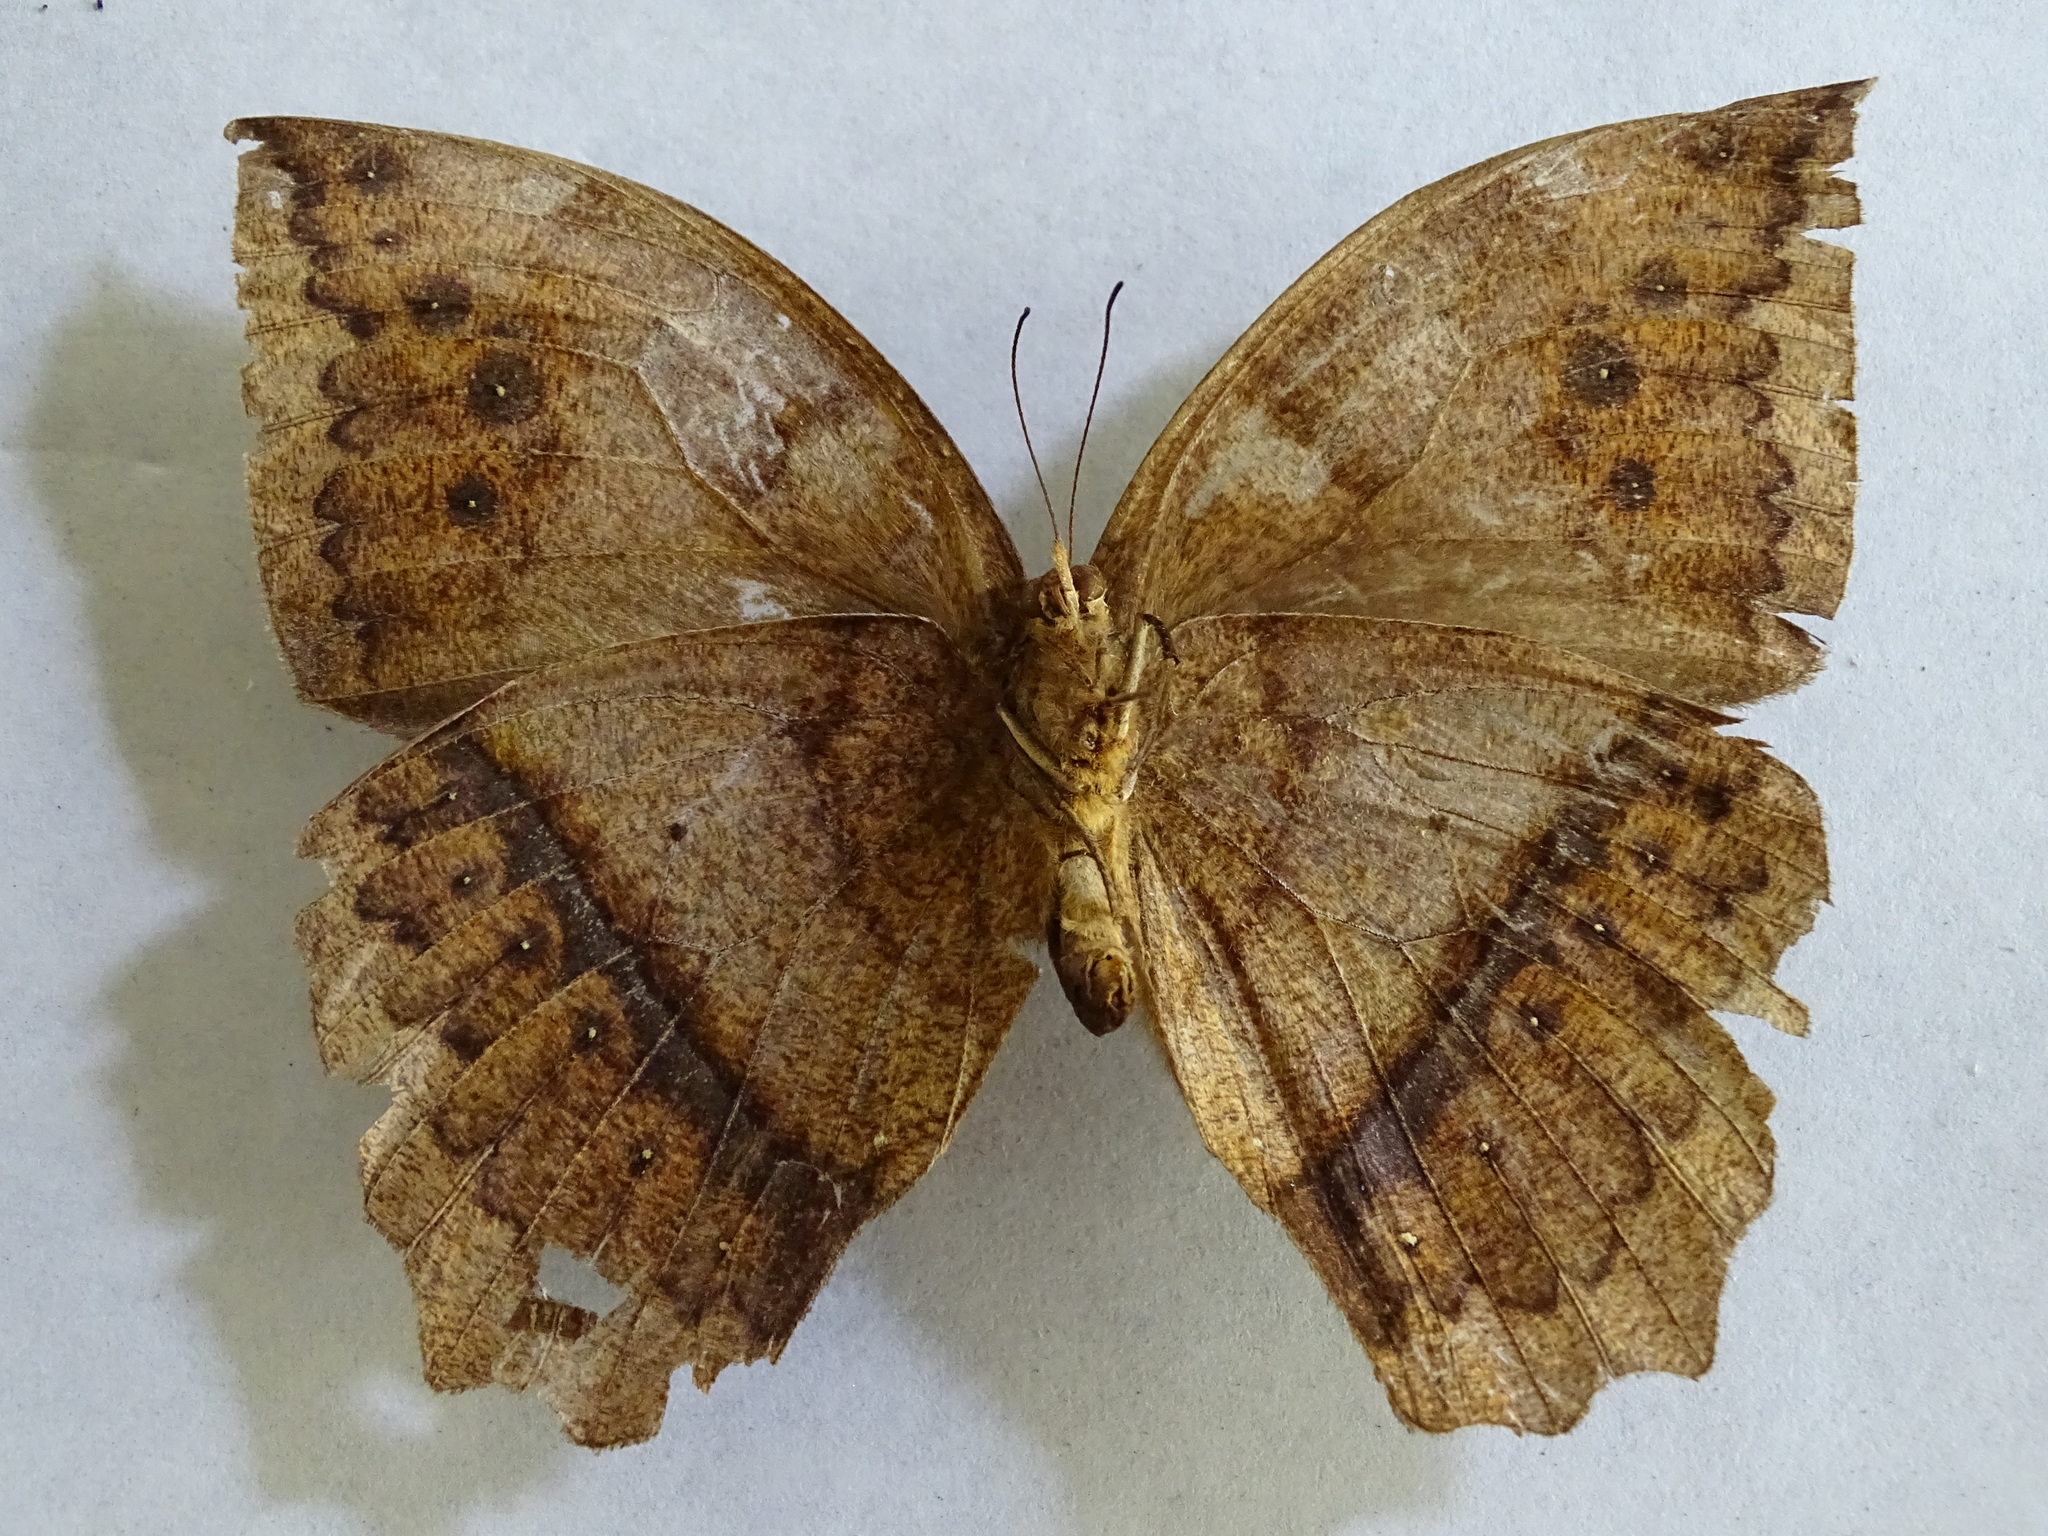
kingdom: Animalia
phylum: Arthropoda
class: Insecta
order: Lepidoptera
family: Nymphalidae
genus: Taygetis
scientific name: Taygetis mermeria
